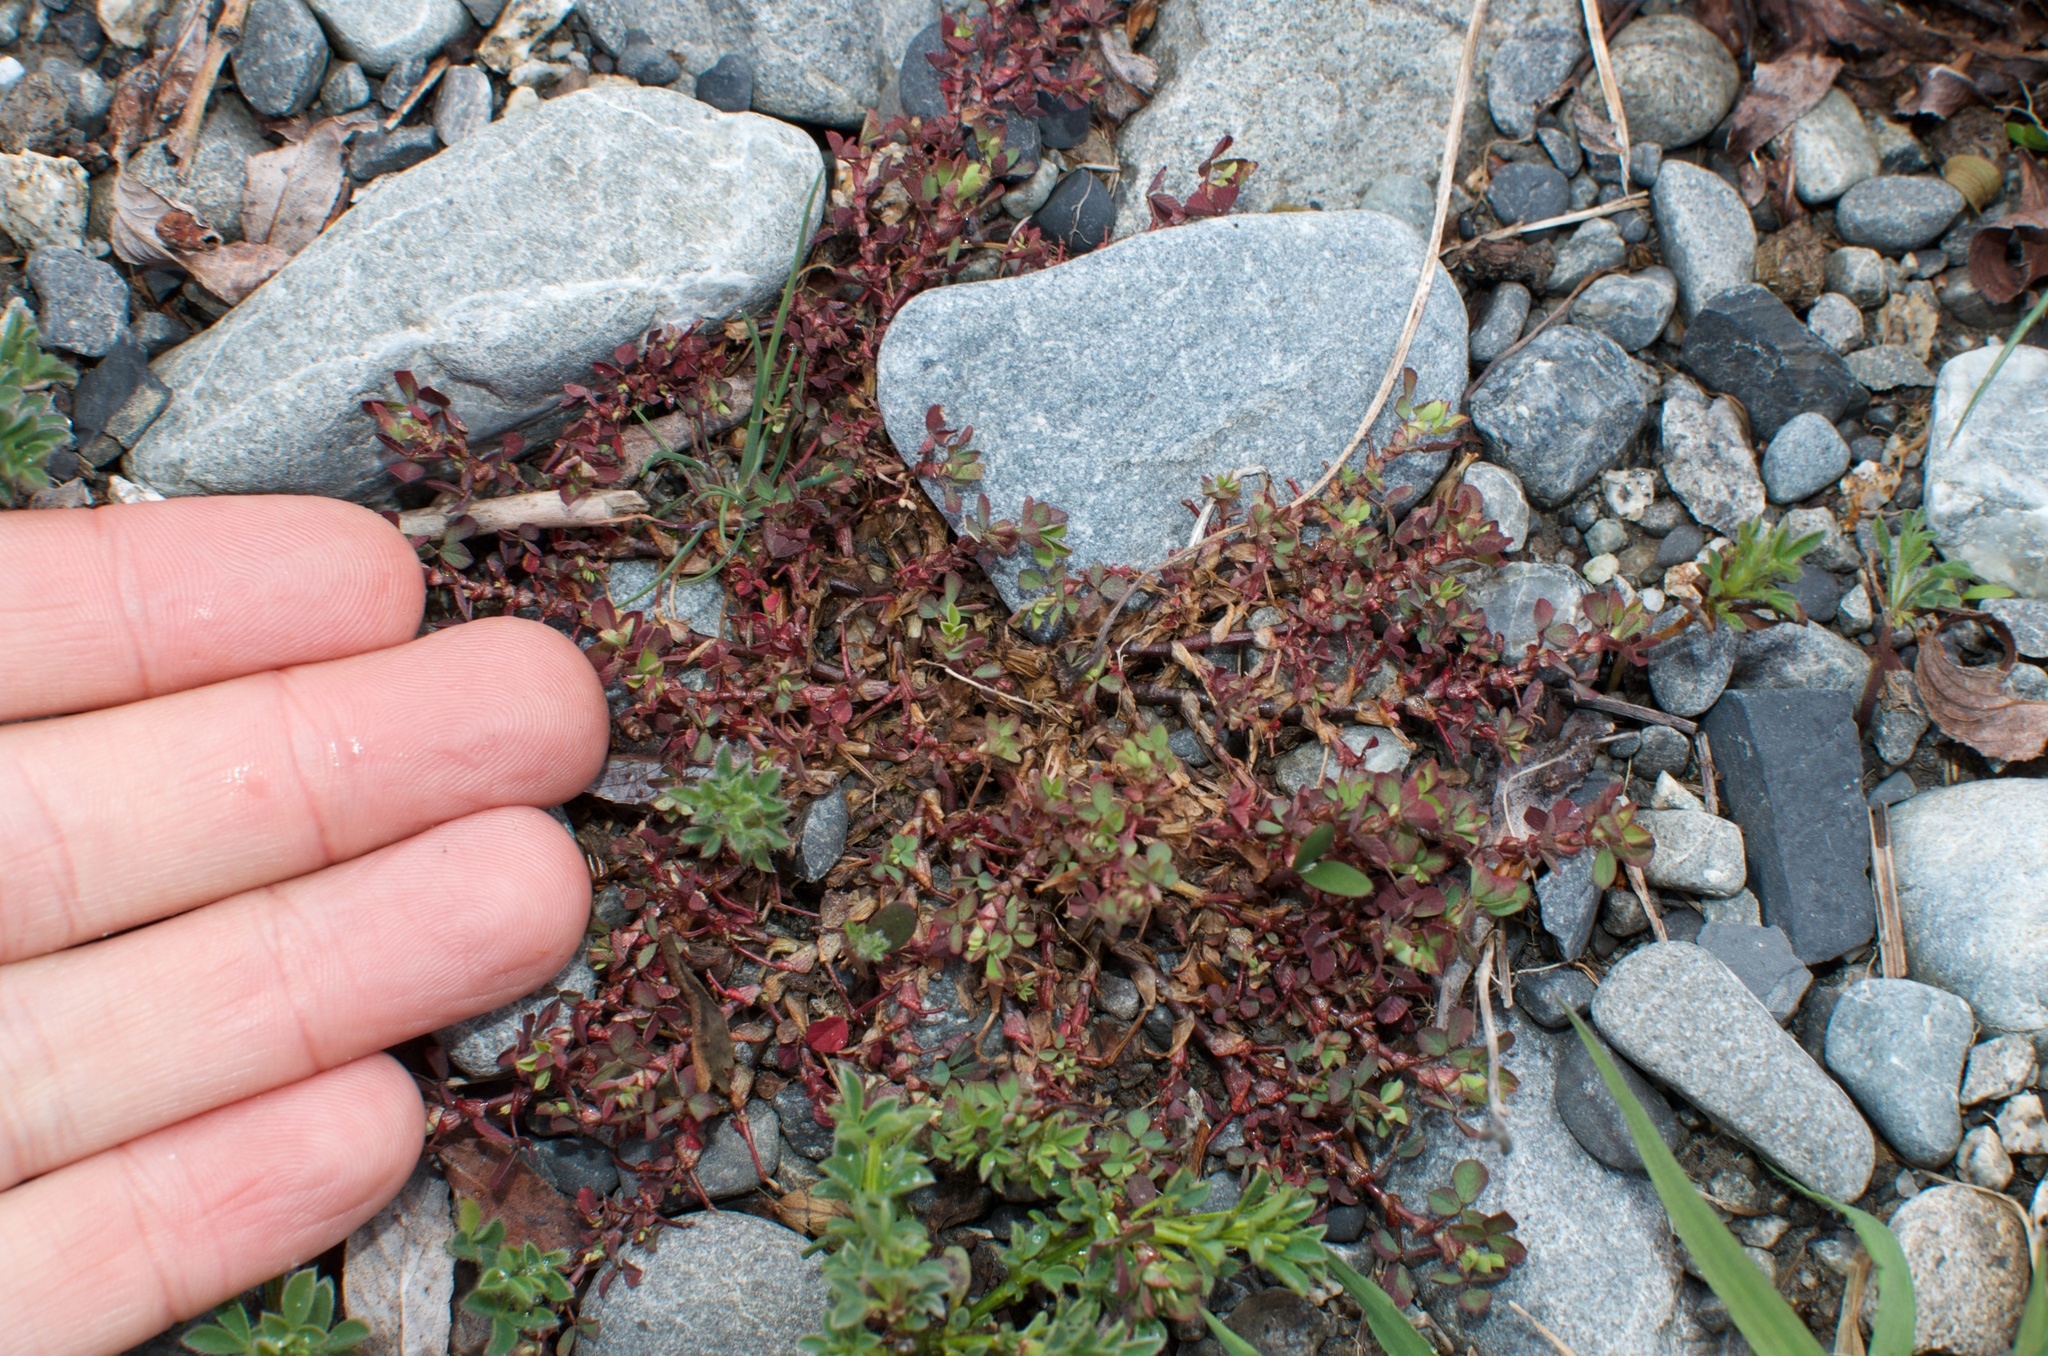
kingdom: Plantae
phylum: Tracheophyta
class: Magnoliopsida
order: Fabales
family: Fabaceae
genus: Trifolium
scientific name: Trifolium dubium
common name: Suckling clover
